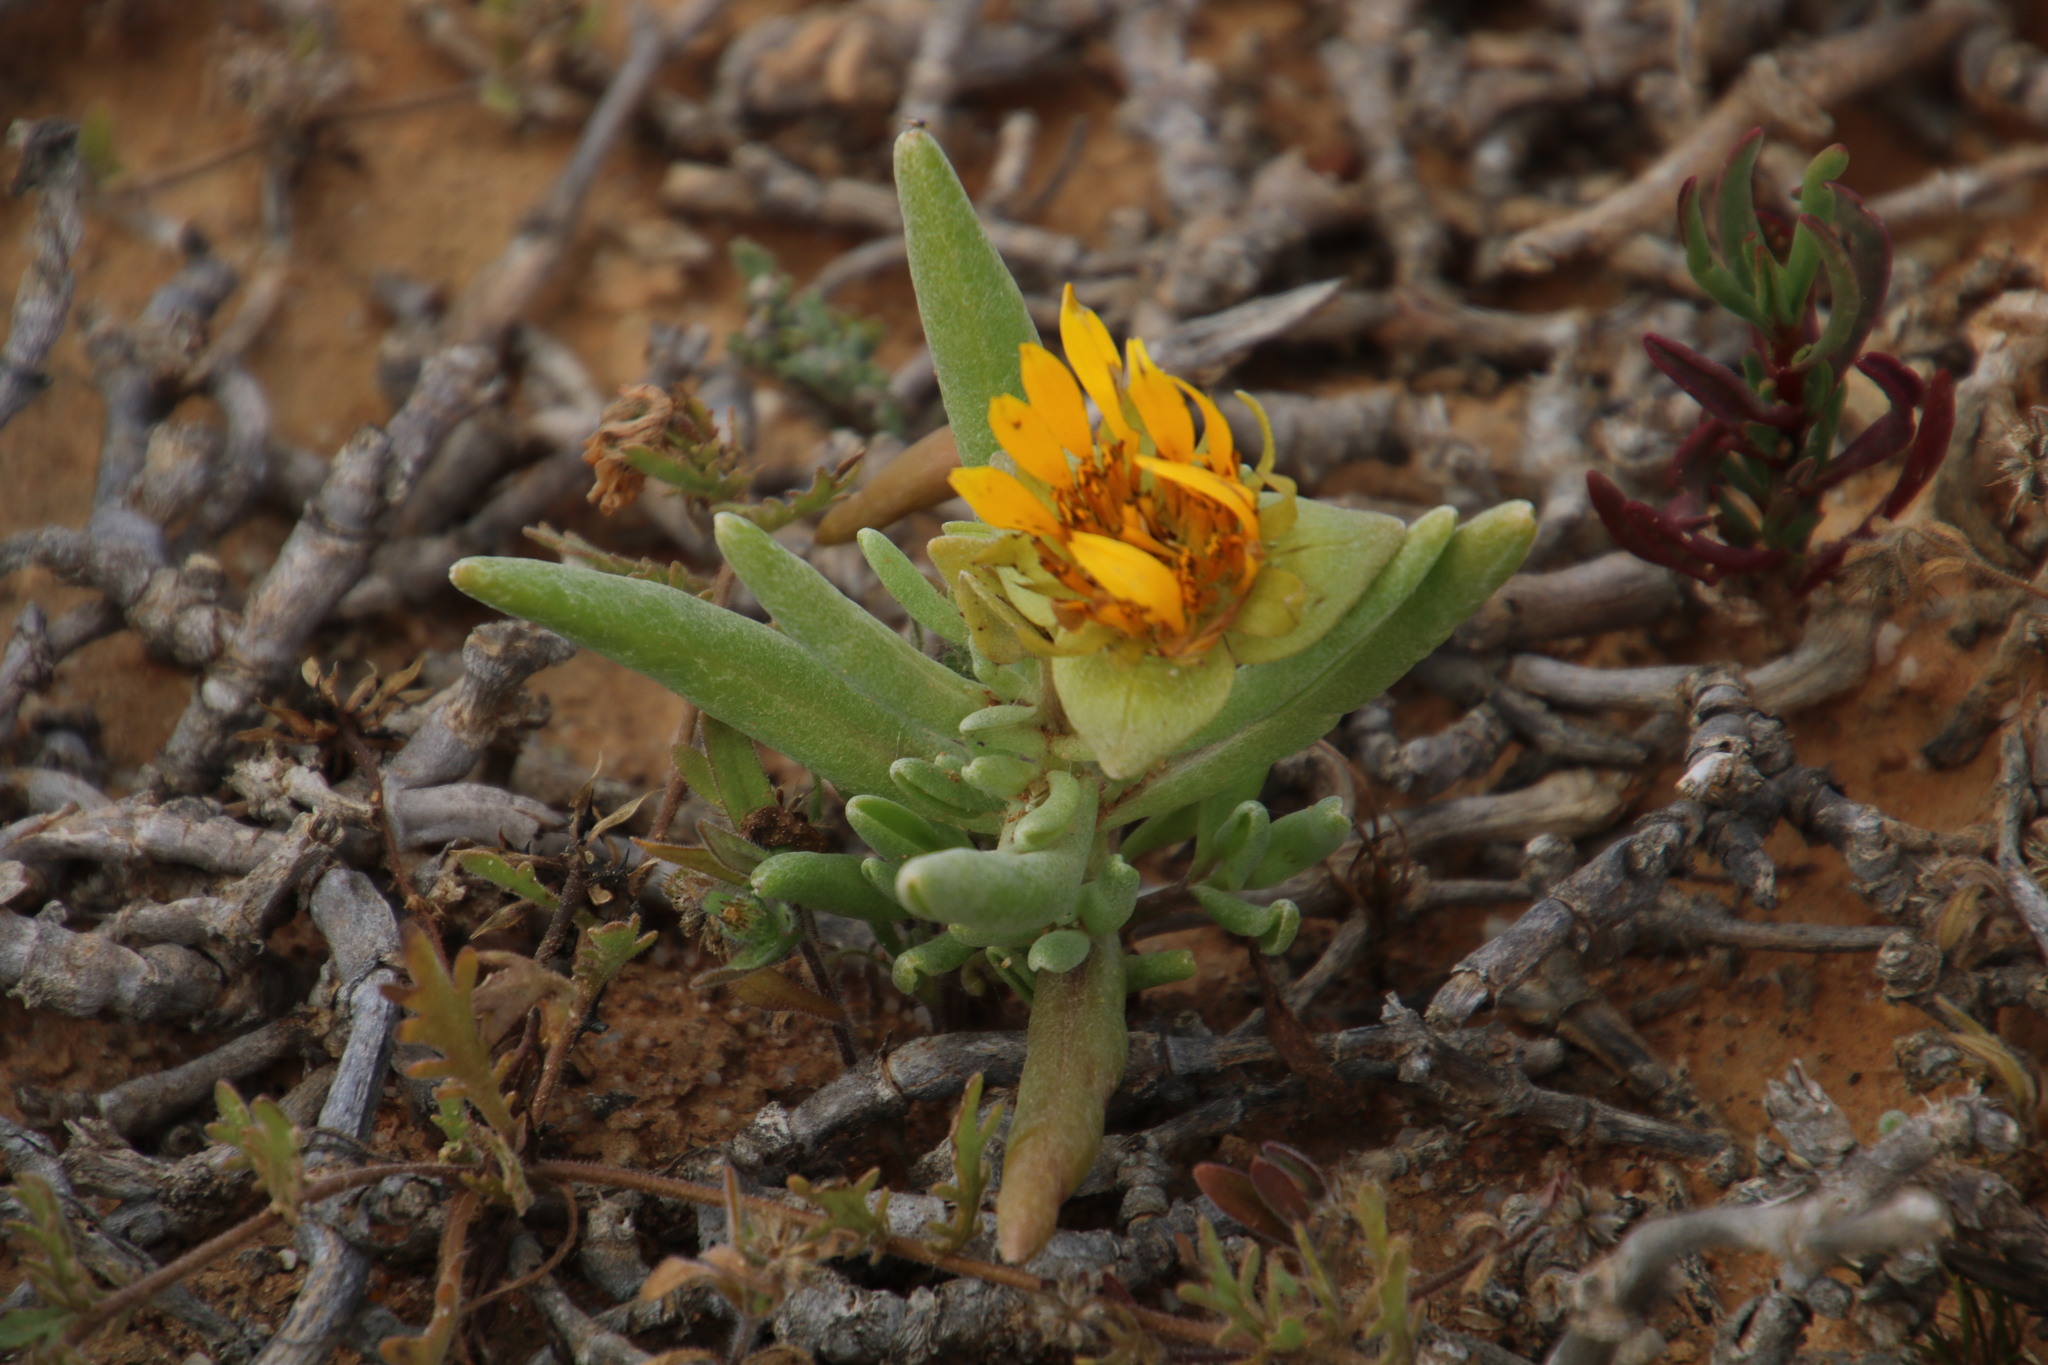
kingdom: Plantae
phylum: Tracheophyta
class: Magnoliopsida
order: Asterales
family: Asteraceae
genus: Didelta
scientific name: Didelta carnosa
